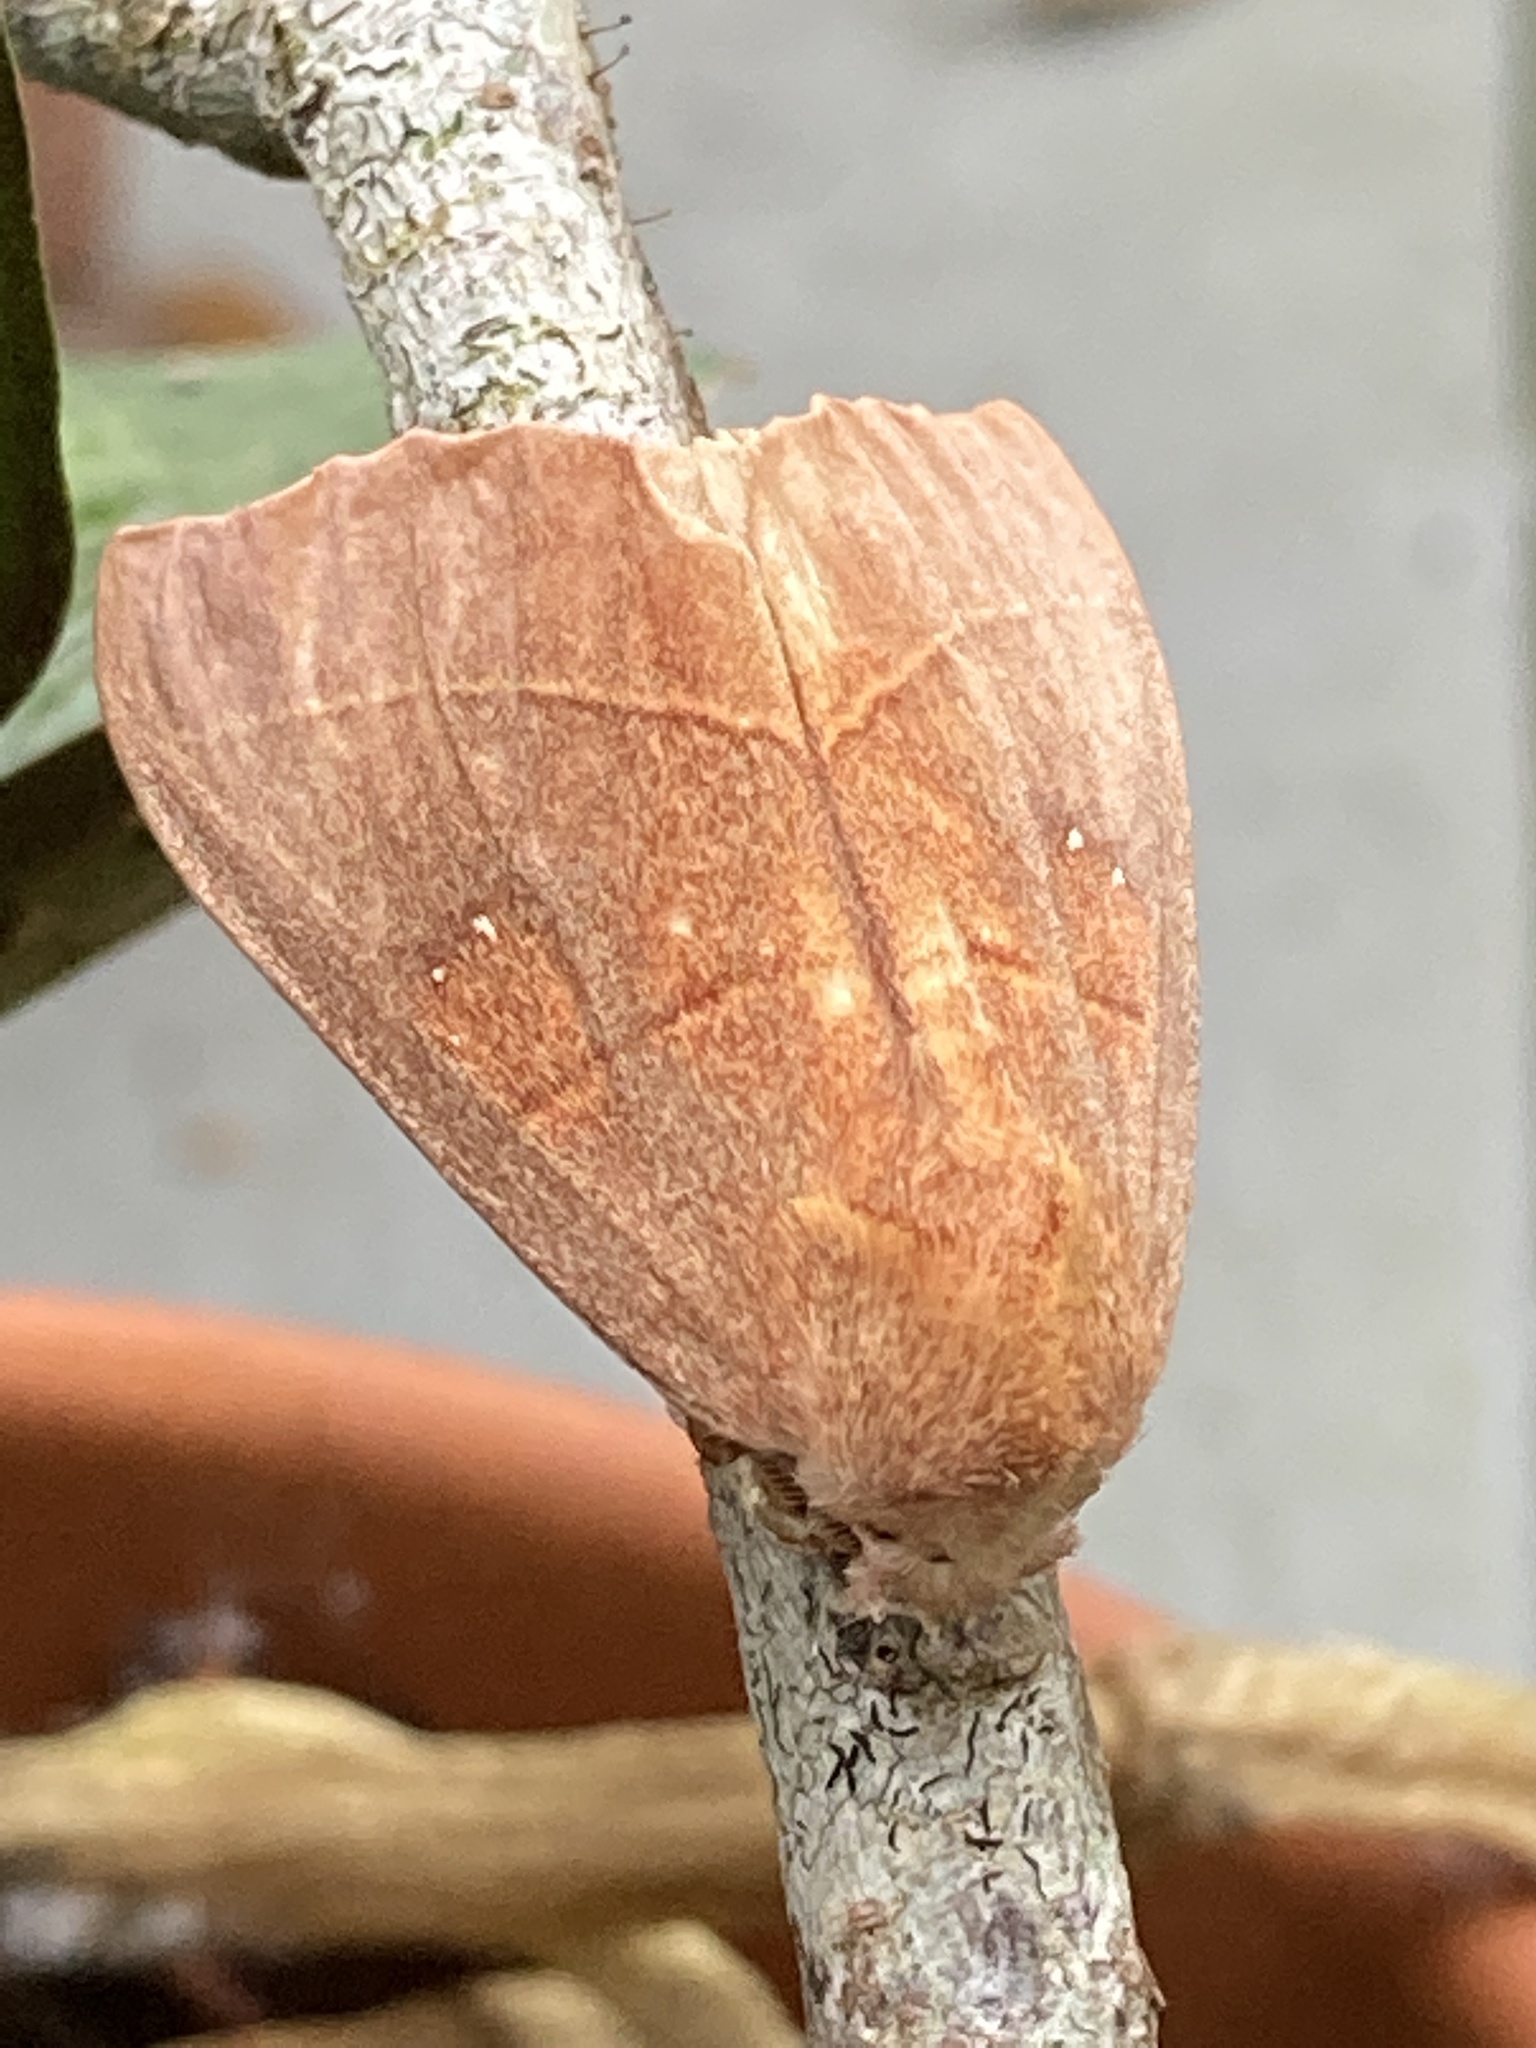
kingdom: Animalia
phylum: Arthropoda
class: Insecta
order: Lepidoptera
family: Notodontidae
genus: Nadata
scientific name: Nadata gibbosa
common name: White-dotted prominent
